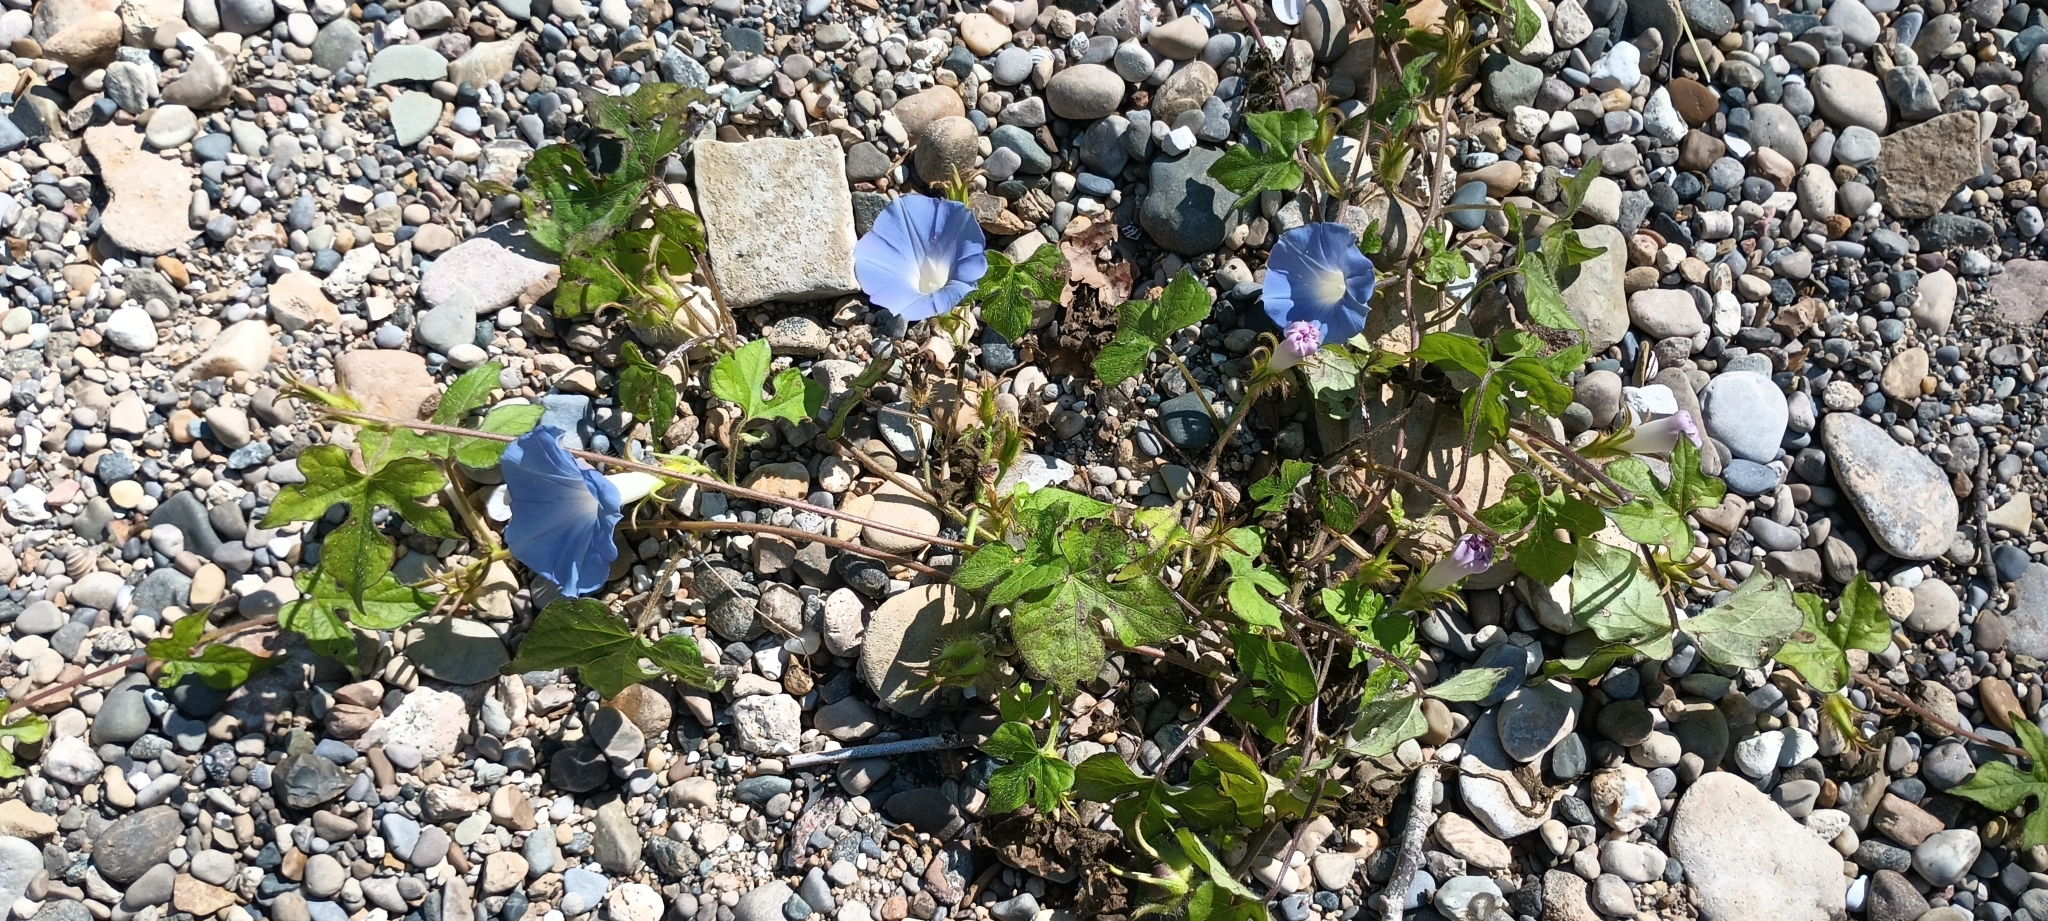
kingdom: Plantae
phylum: Tracheophyta
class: Magnoliopsida
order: Solanales
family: Convolvulaceae
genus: Ipomoea
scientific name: Ipomoea hederacea
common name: Ivy-leaved morning-glory
